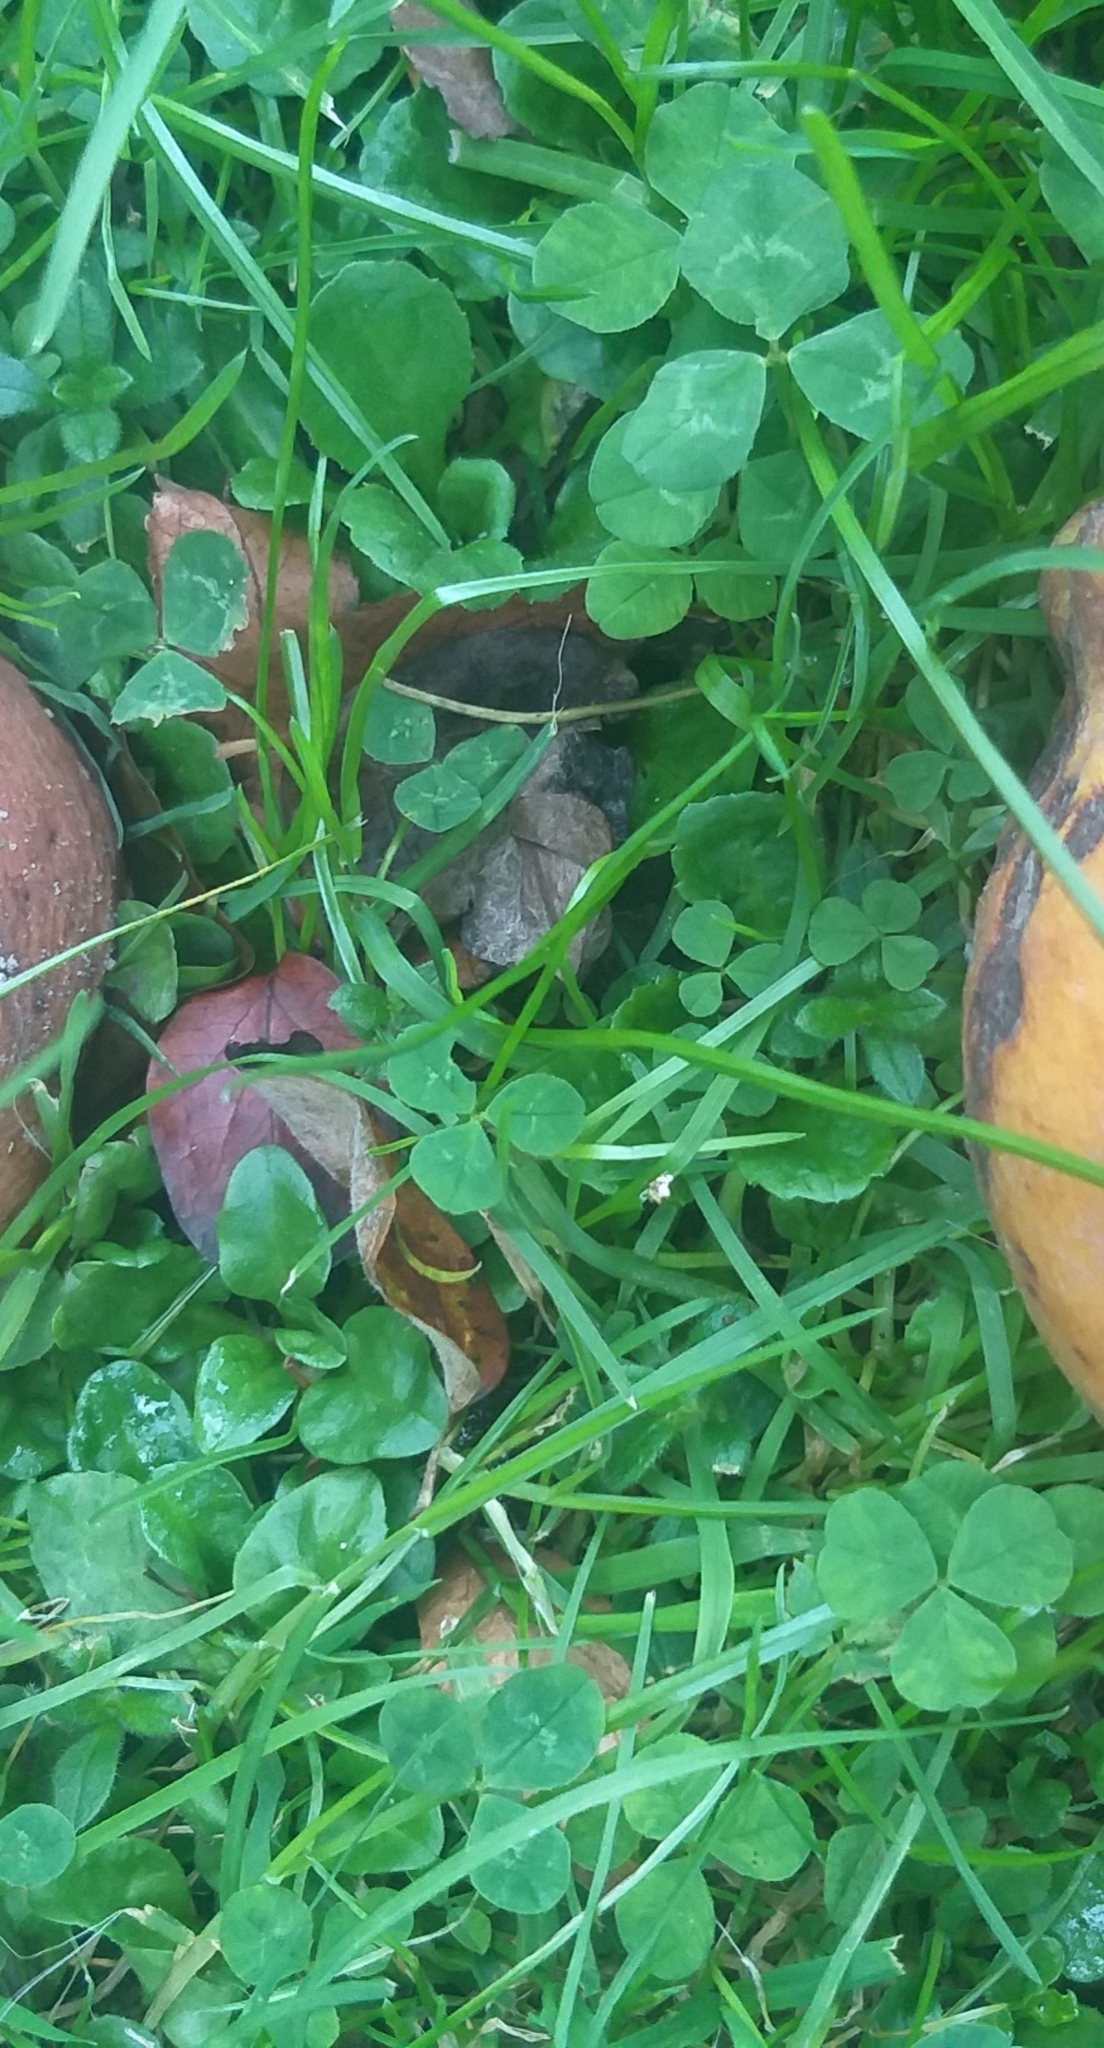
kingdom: Plantae
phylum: Tracheophyta
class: Magnoliopsida
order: Fabales
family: Fabaceae
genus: Trifolium
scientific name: Trifolium repens
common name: White clover
